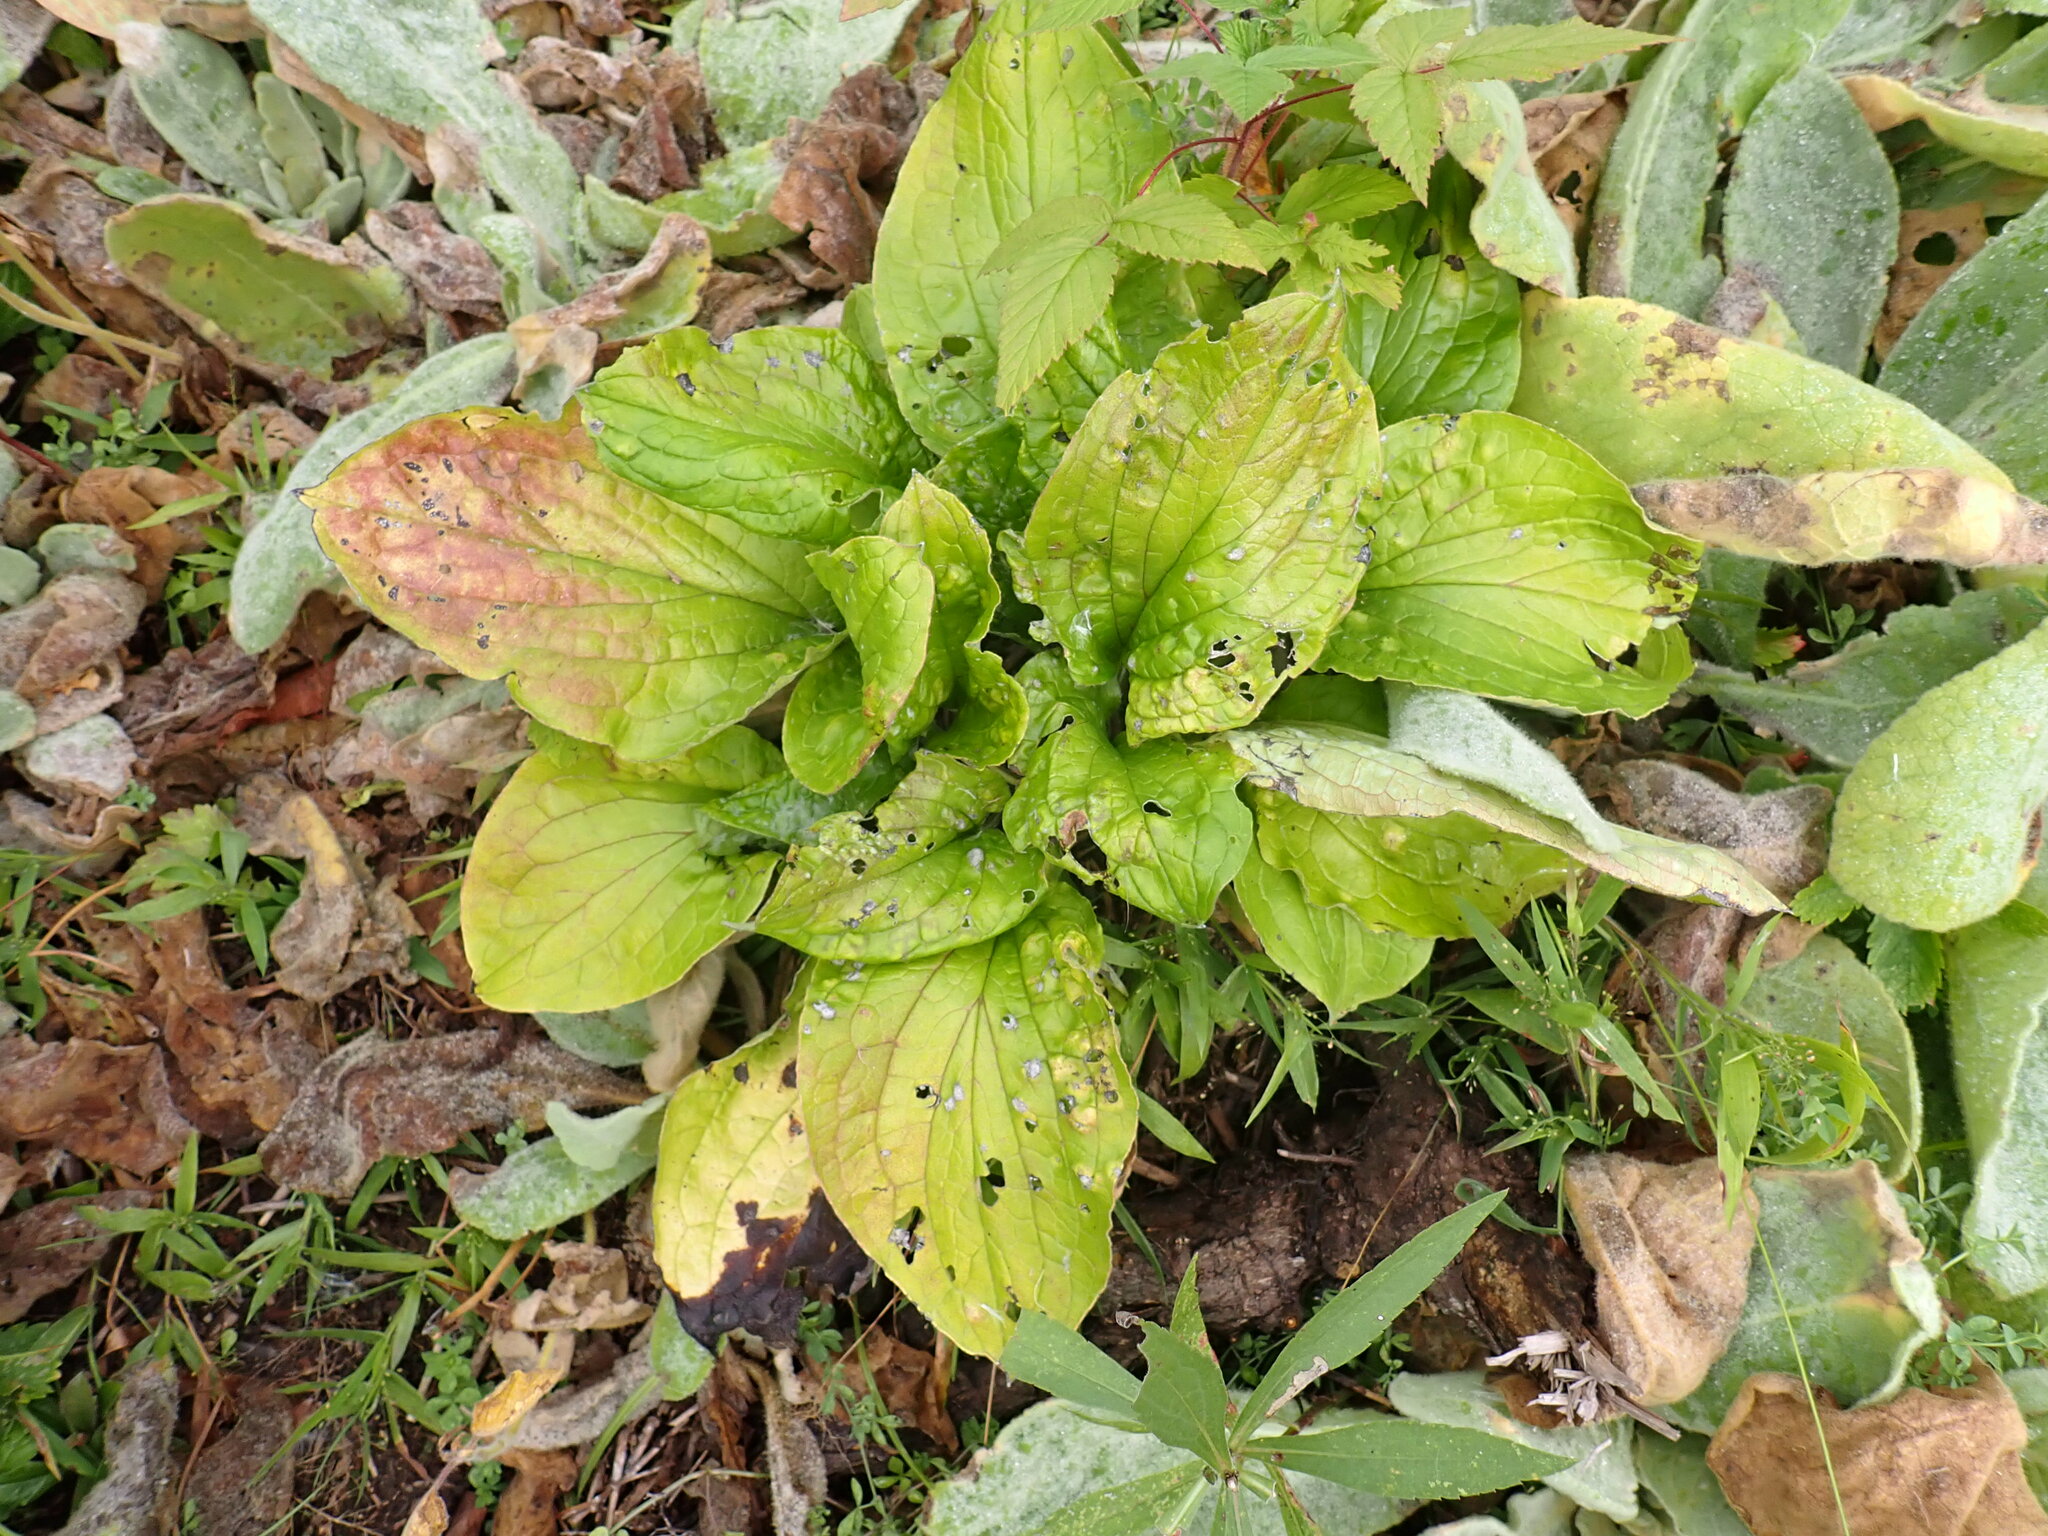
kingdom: Plantae
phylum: Tracheophyta
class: Magnoliopsida
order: Boraginales
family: Boraginaceae
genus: Hackelia
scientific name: Hackelia virginiana
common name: Beggar's-lice
